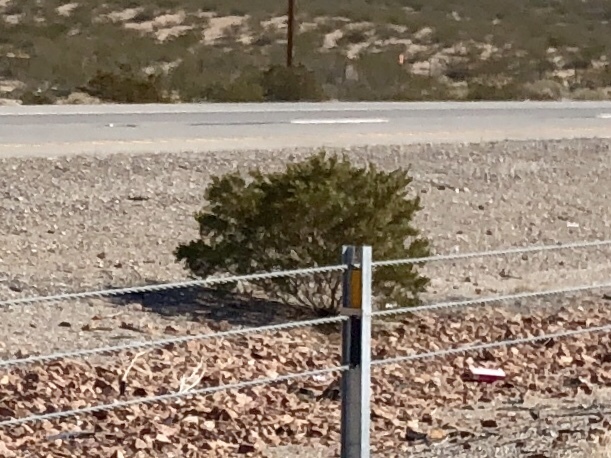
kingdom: Plantae
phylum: Tracheophyta
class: Magnoliopsida
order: Zygophyllales
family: Zygophyllaceae
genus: Larrea
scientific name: Larrea tridentata
